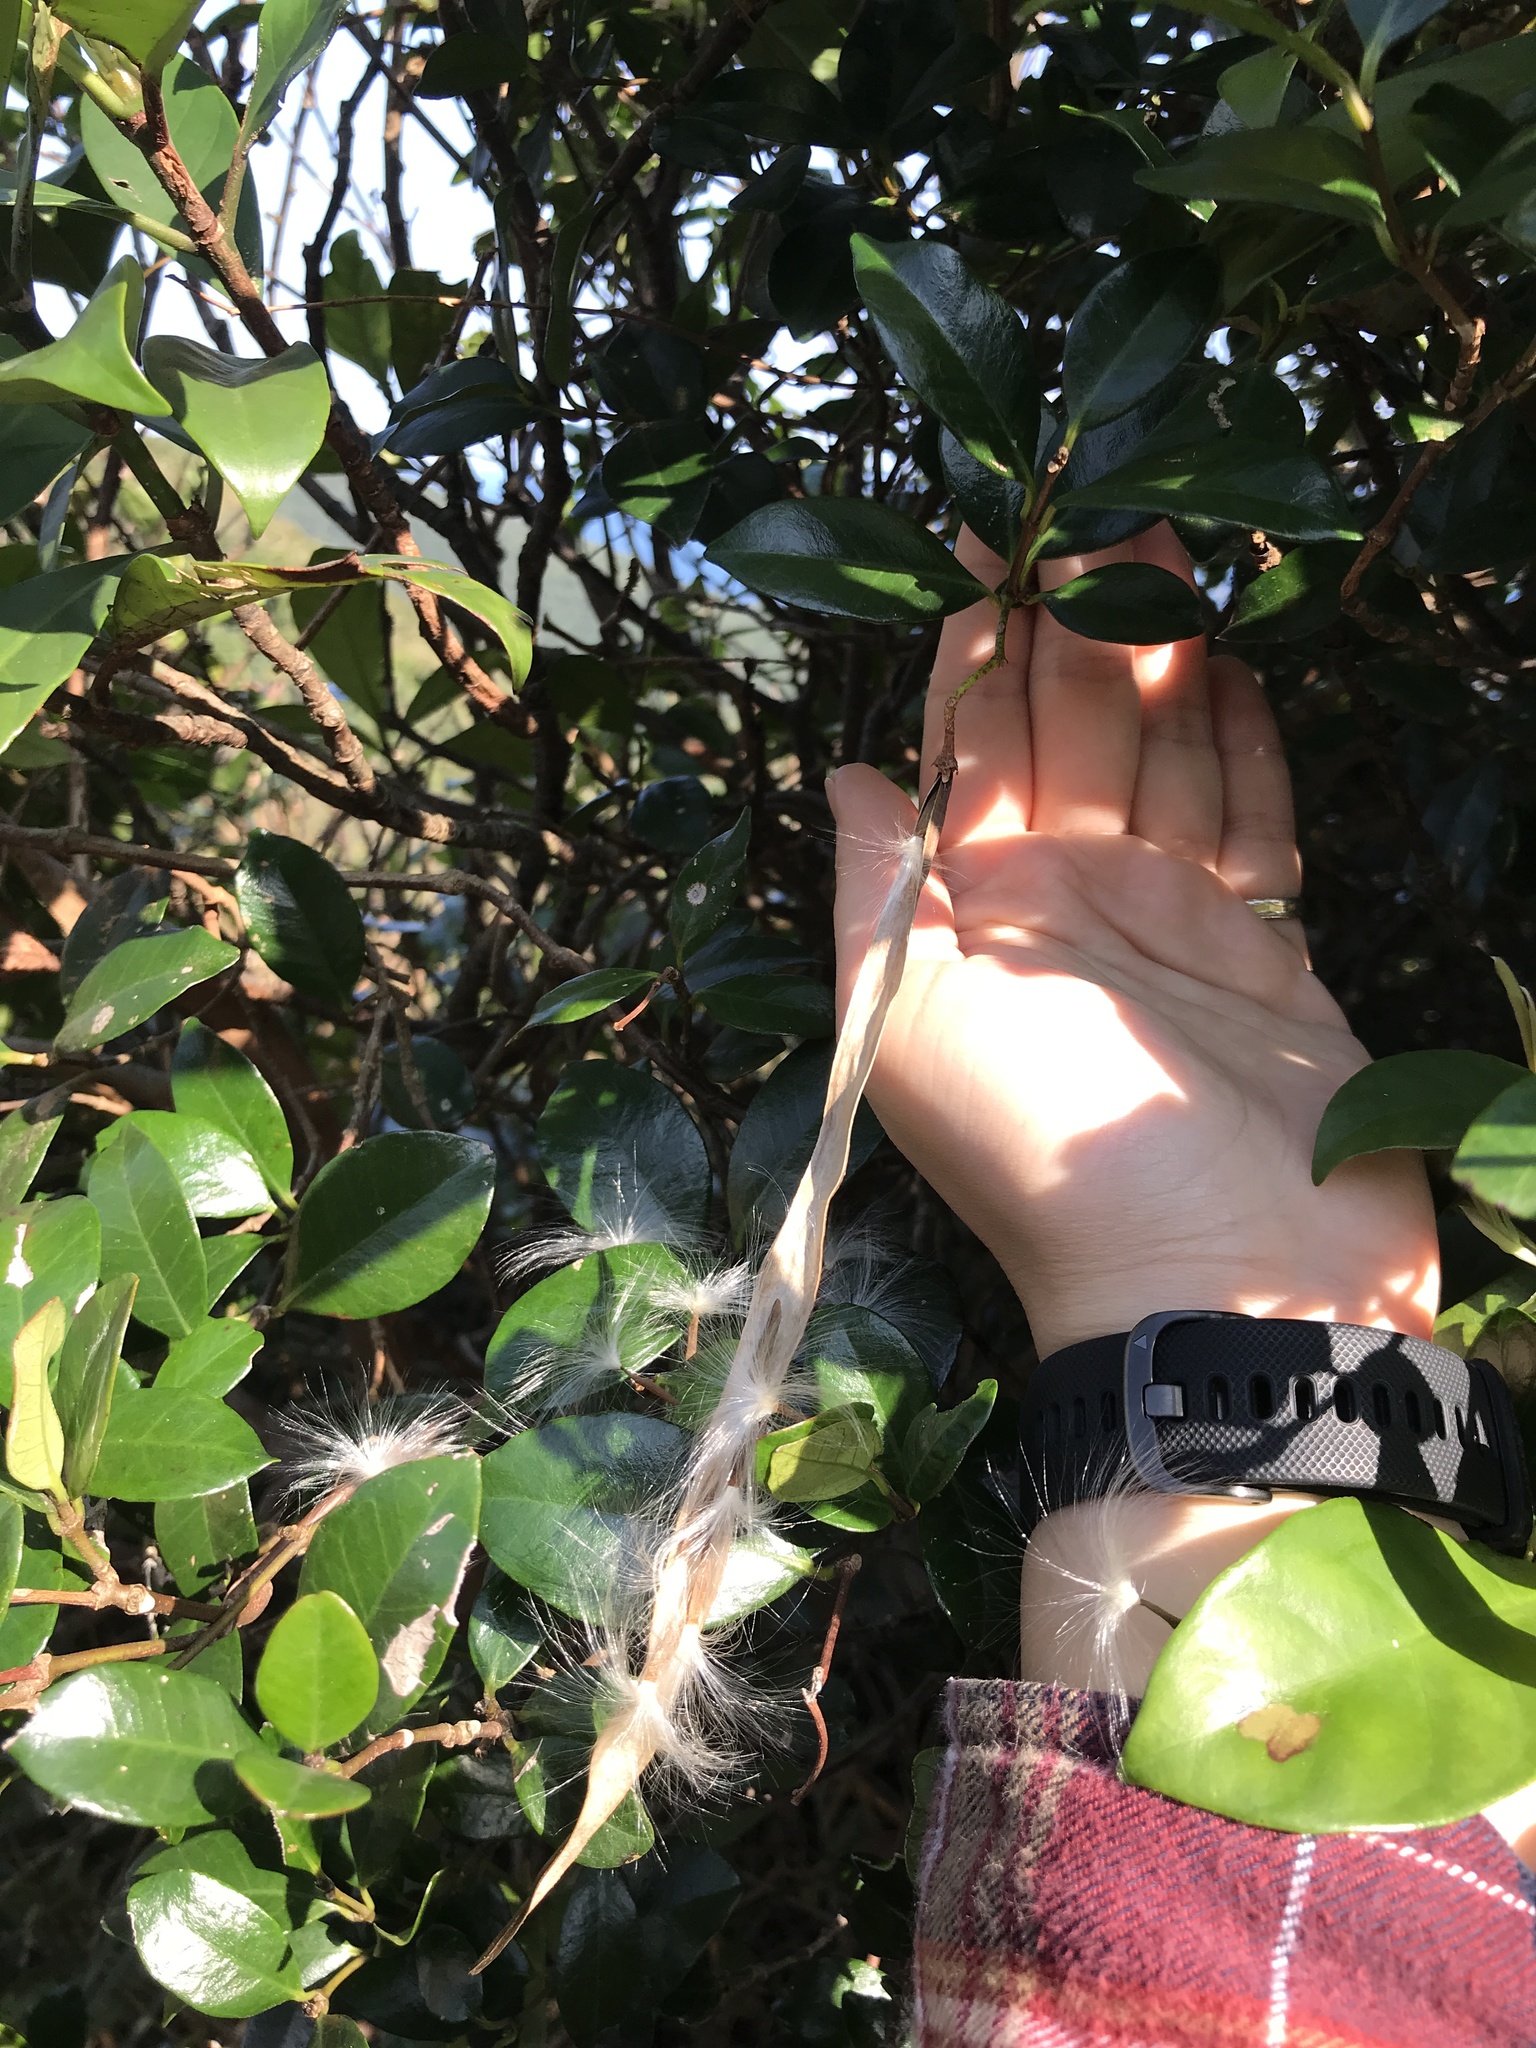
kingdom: Plantae
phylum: Tracheophyta
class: Magnoliopsida
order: Gentianales
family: Apocynaceae
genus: Gymnema
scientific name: Gymnema sylvestre
